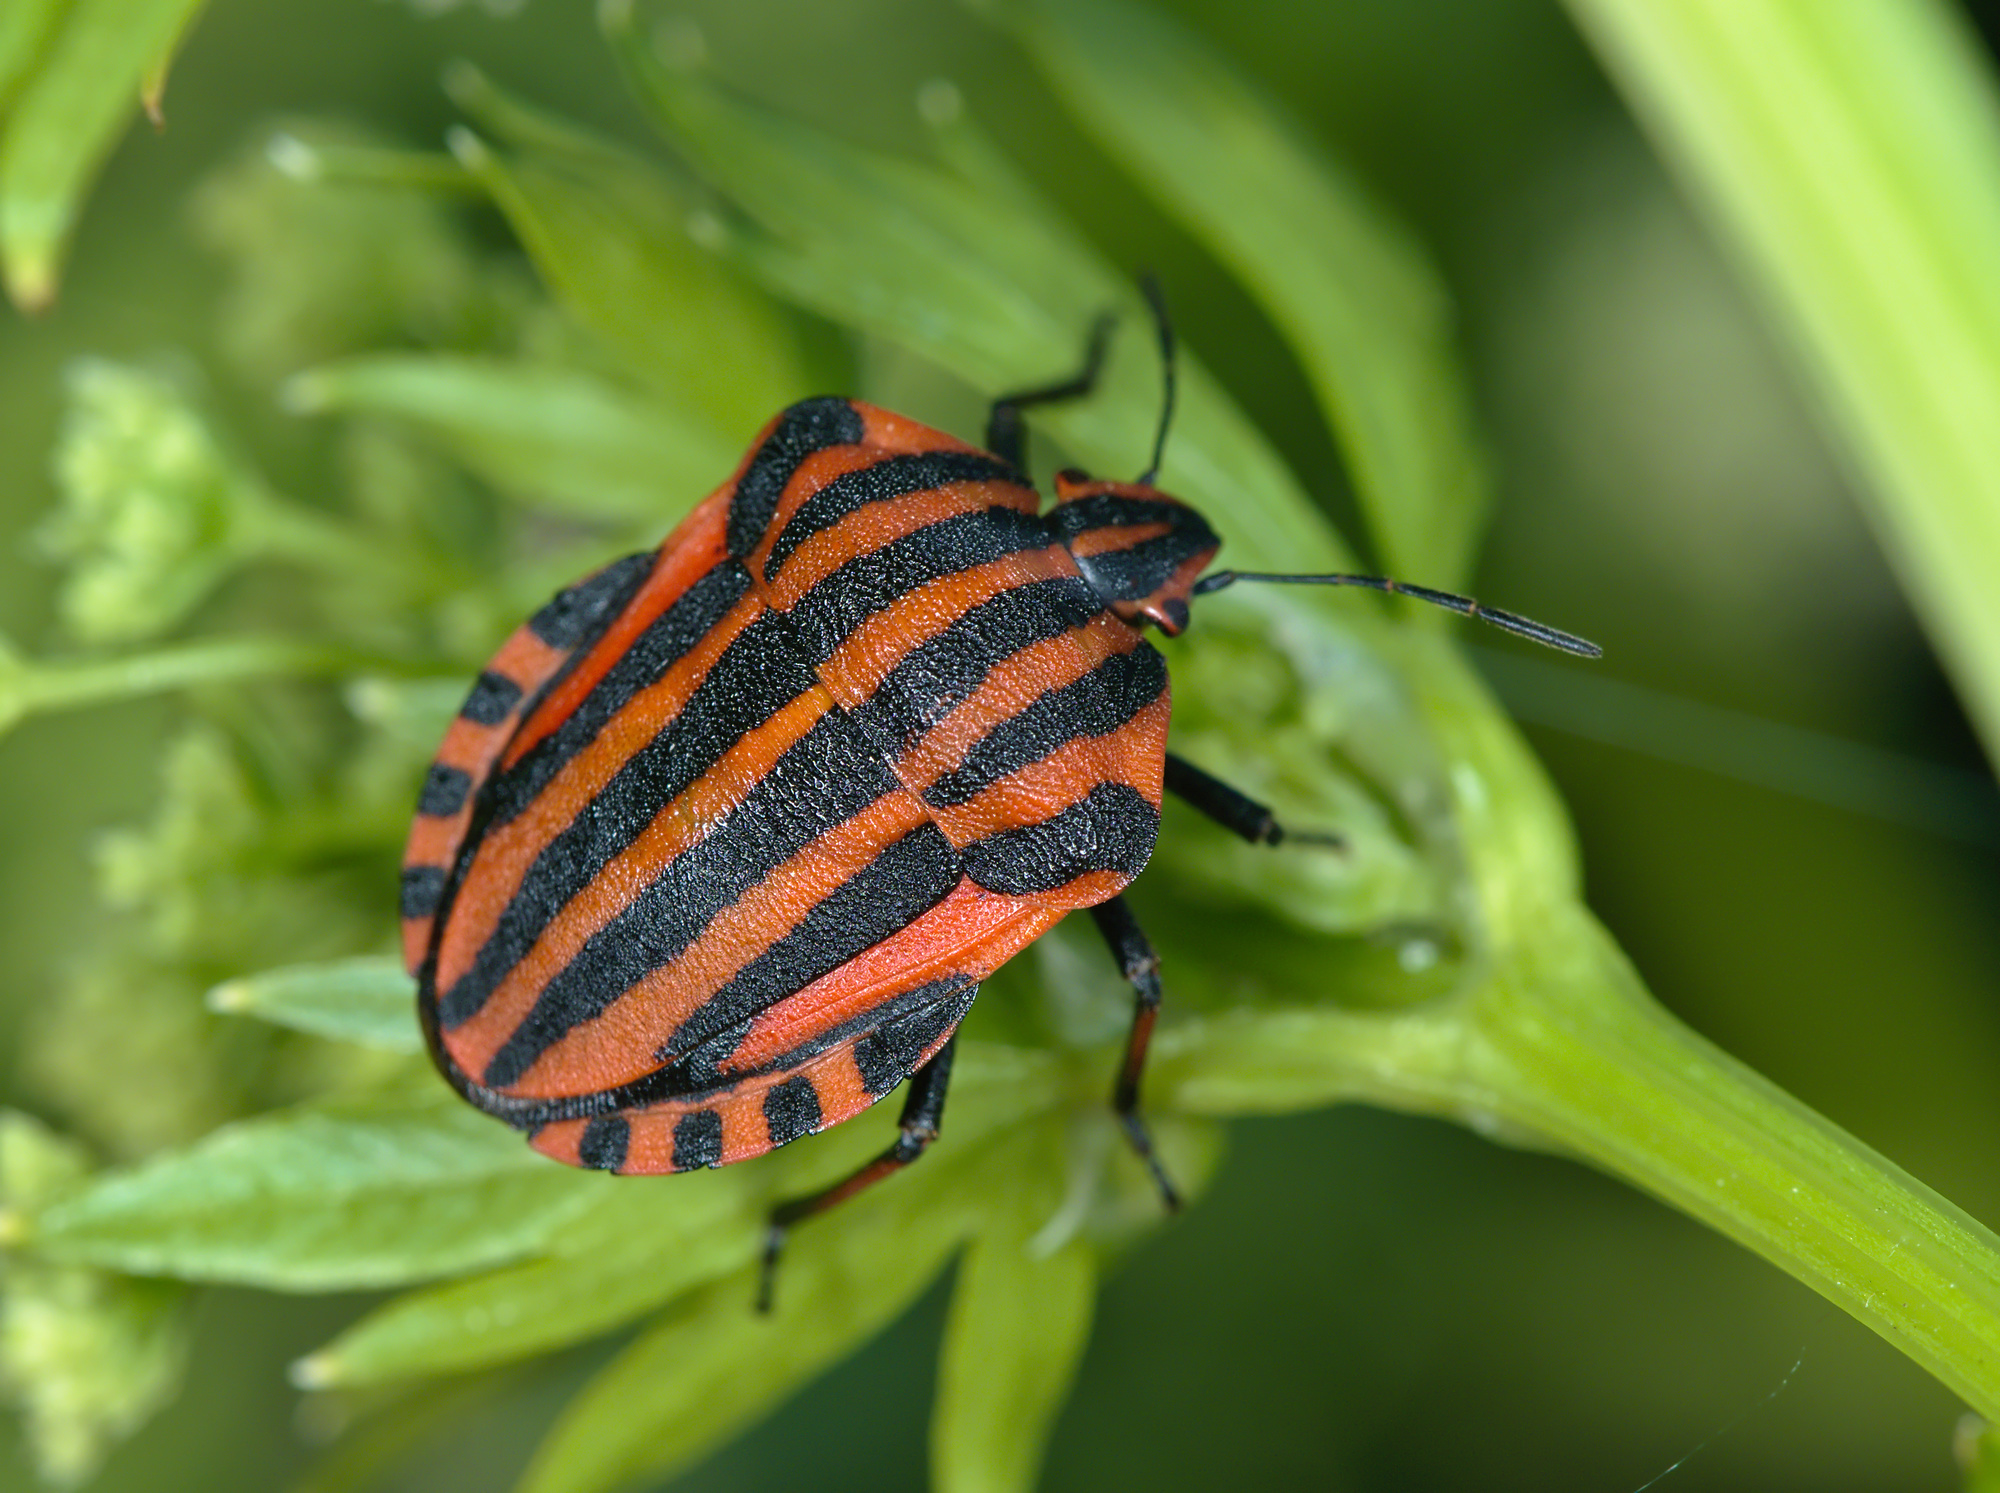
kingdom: Animalia
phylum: Arthropoda
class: Insecta
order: Hemiptera
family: Pentatomidae
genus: Graphosoma
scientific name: Graphosoma italicum
